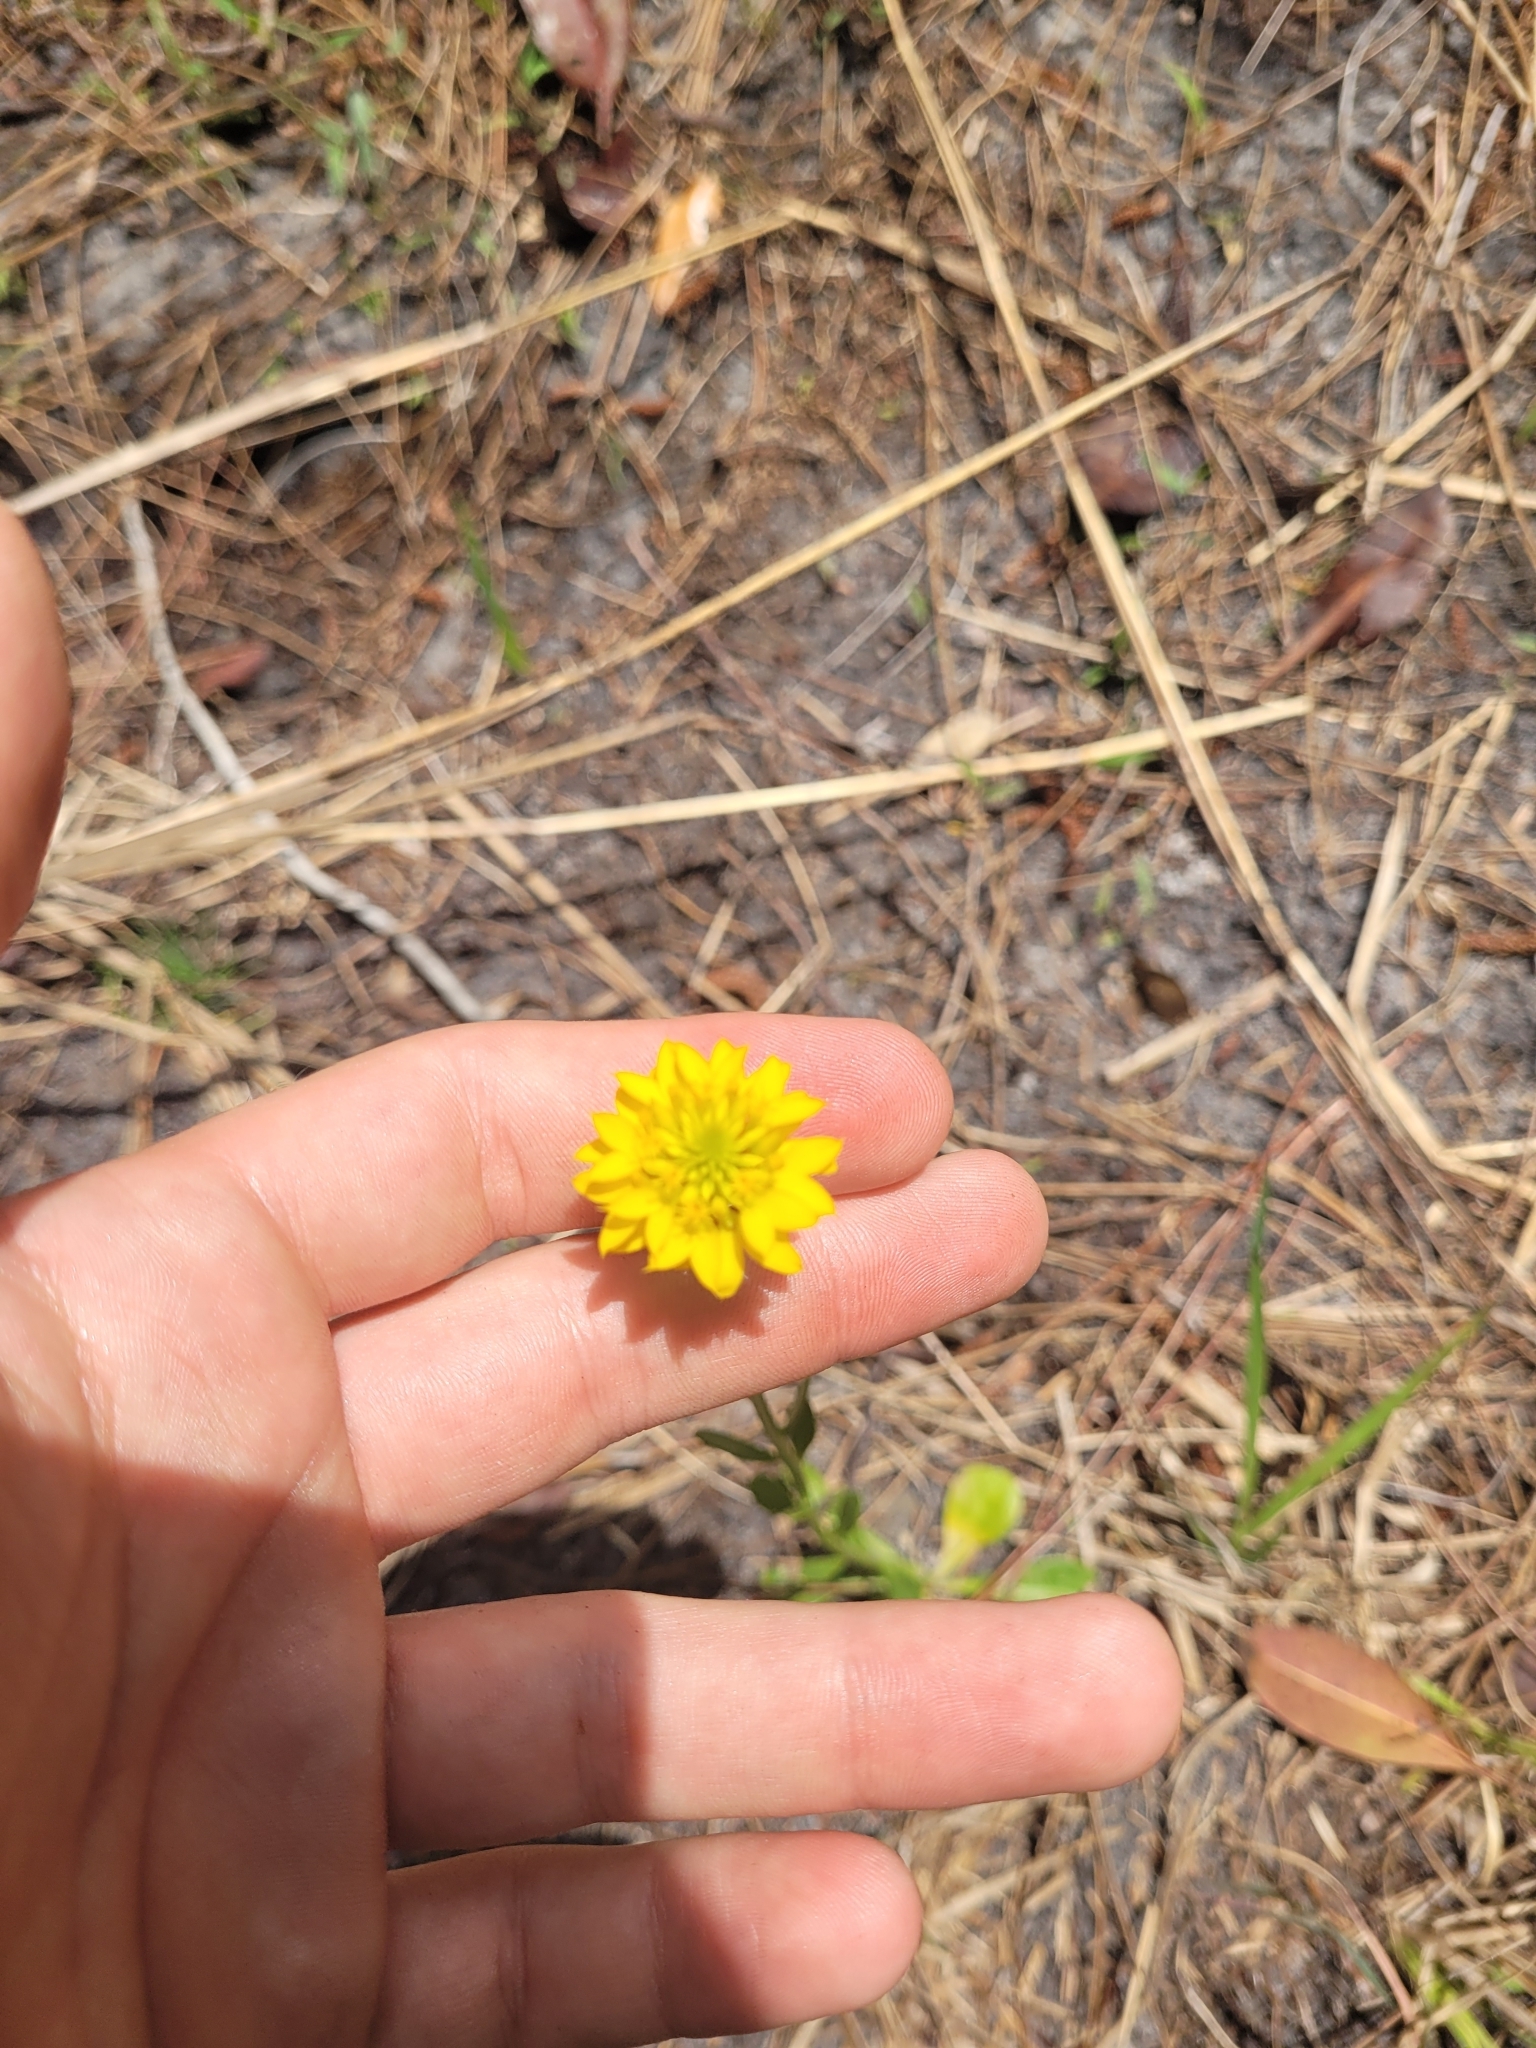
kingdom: Plantae
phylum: Tracheophyta
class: Magnoliopsida
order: Fabales
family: Polygalaceae
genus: Polygala
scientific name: Polygala rugelii
